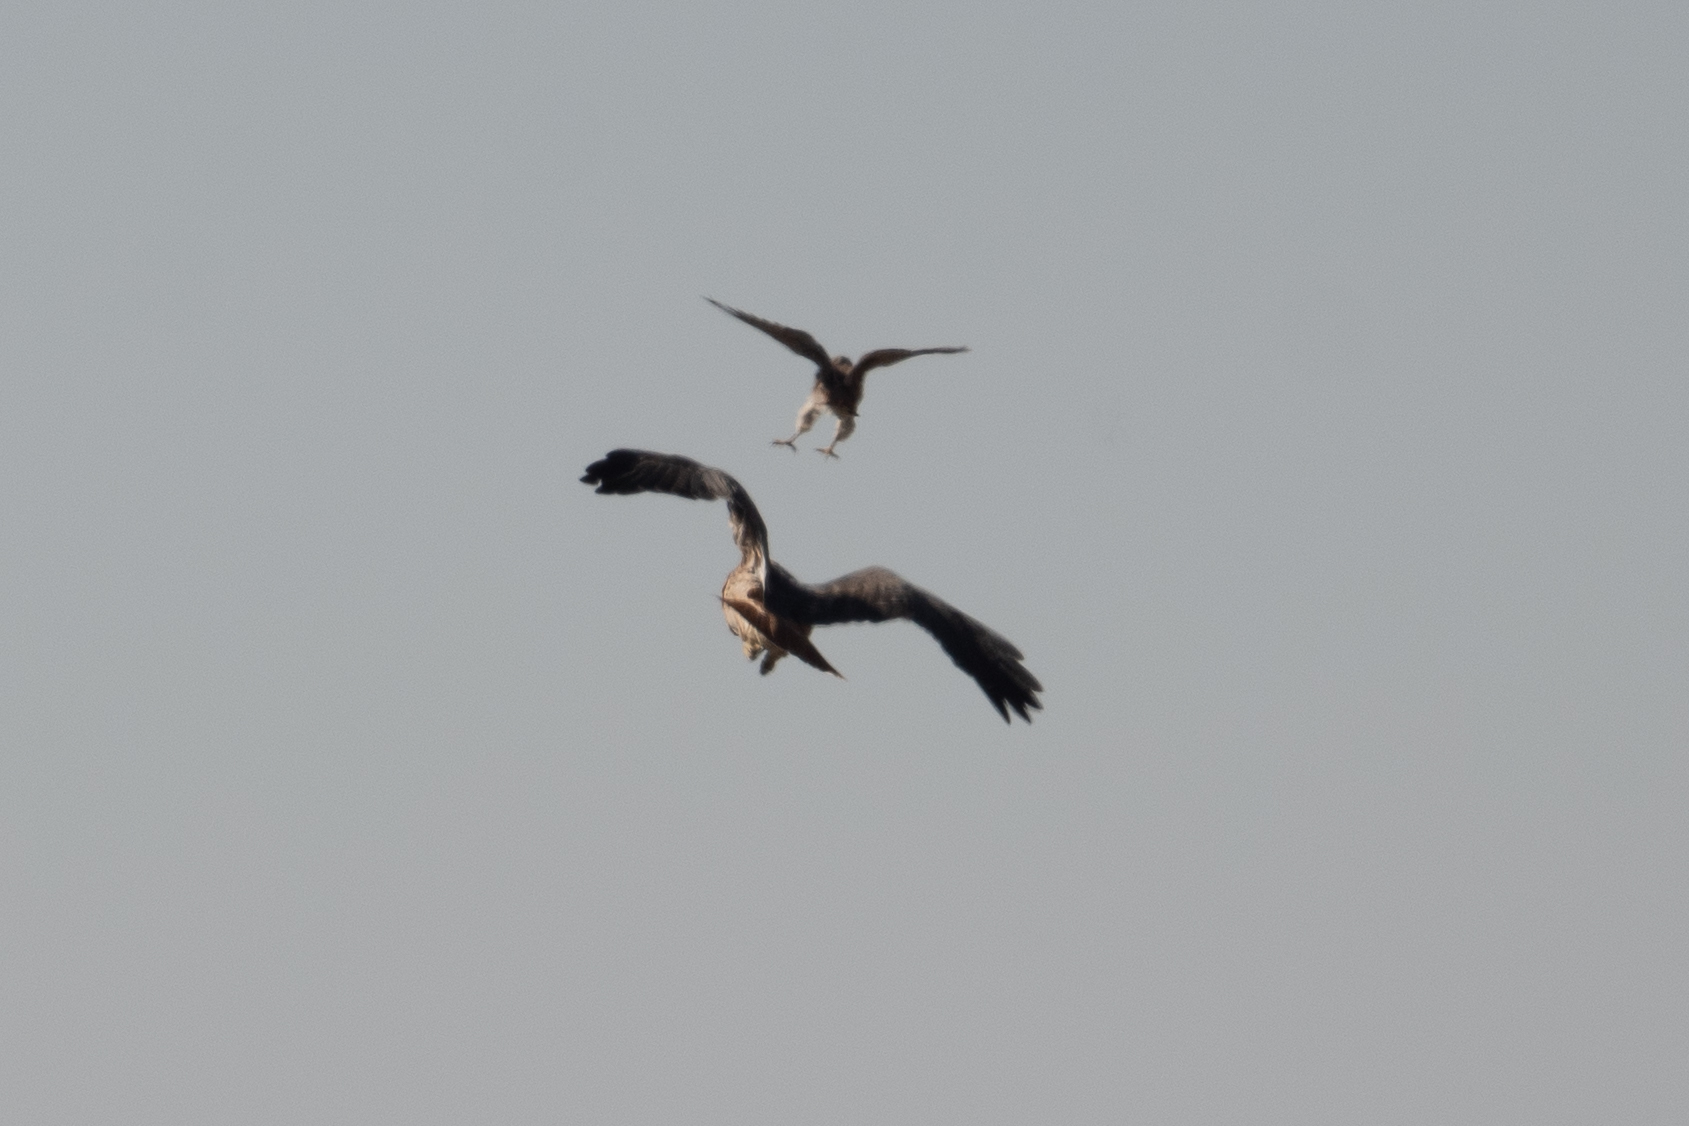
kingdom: Animalia
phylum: Chordata
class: Aves
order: Accipitriformes
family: Accipitridae
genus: Buteo
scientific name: Buteo jamaicensis
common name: Red-tailed hawk
